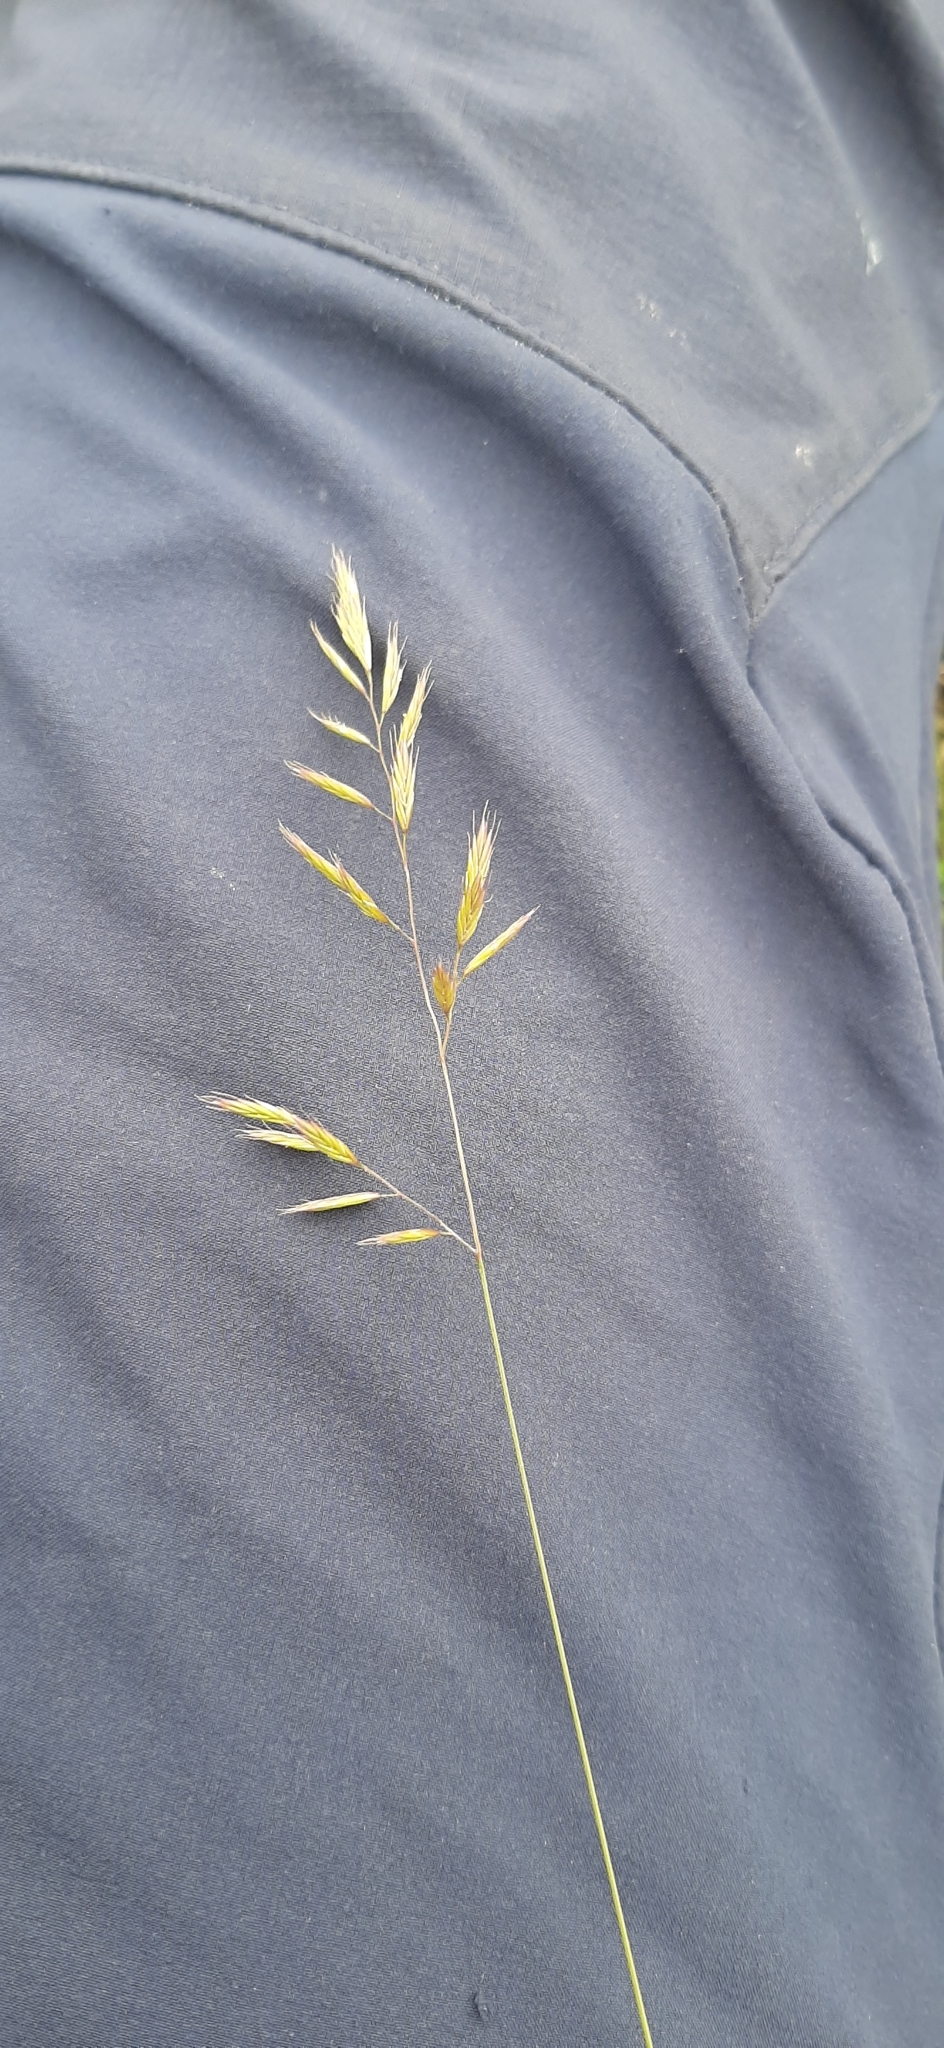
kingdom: Plantae
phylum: Tracheophyta
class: Liliopsida
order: Poales
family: Poaceae
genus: Festuca
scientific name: Festuca pseudovina
